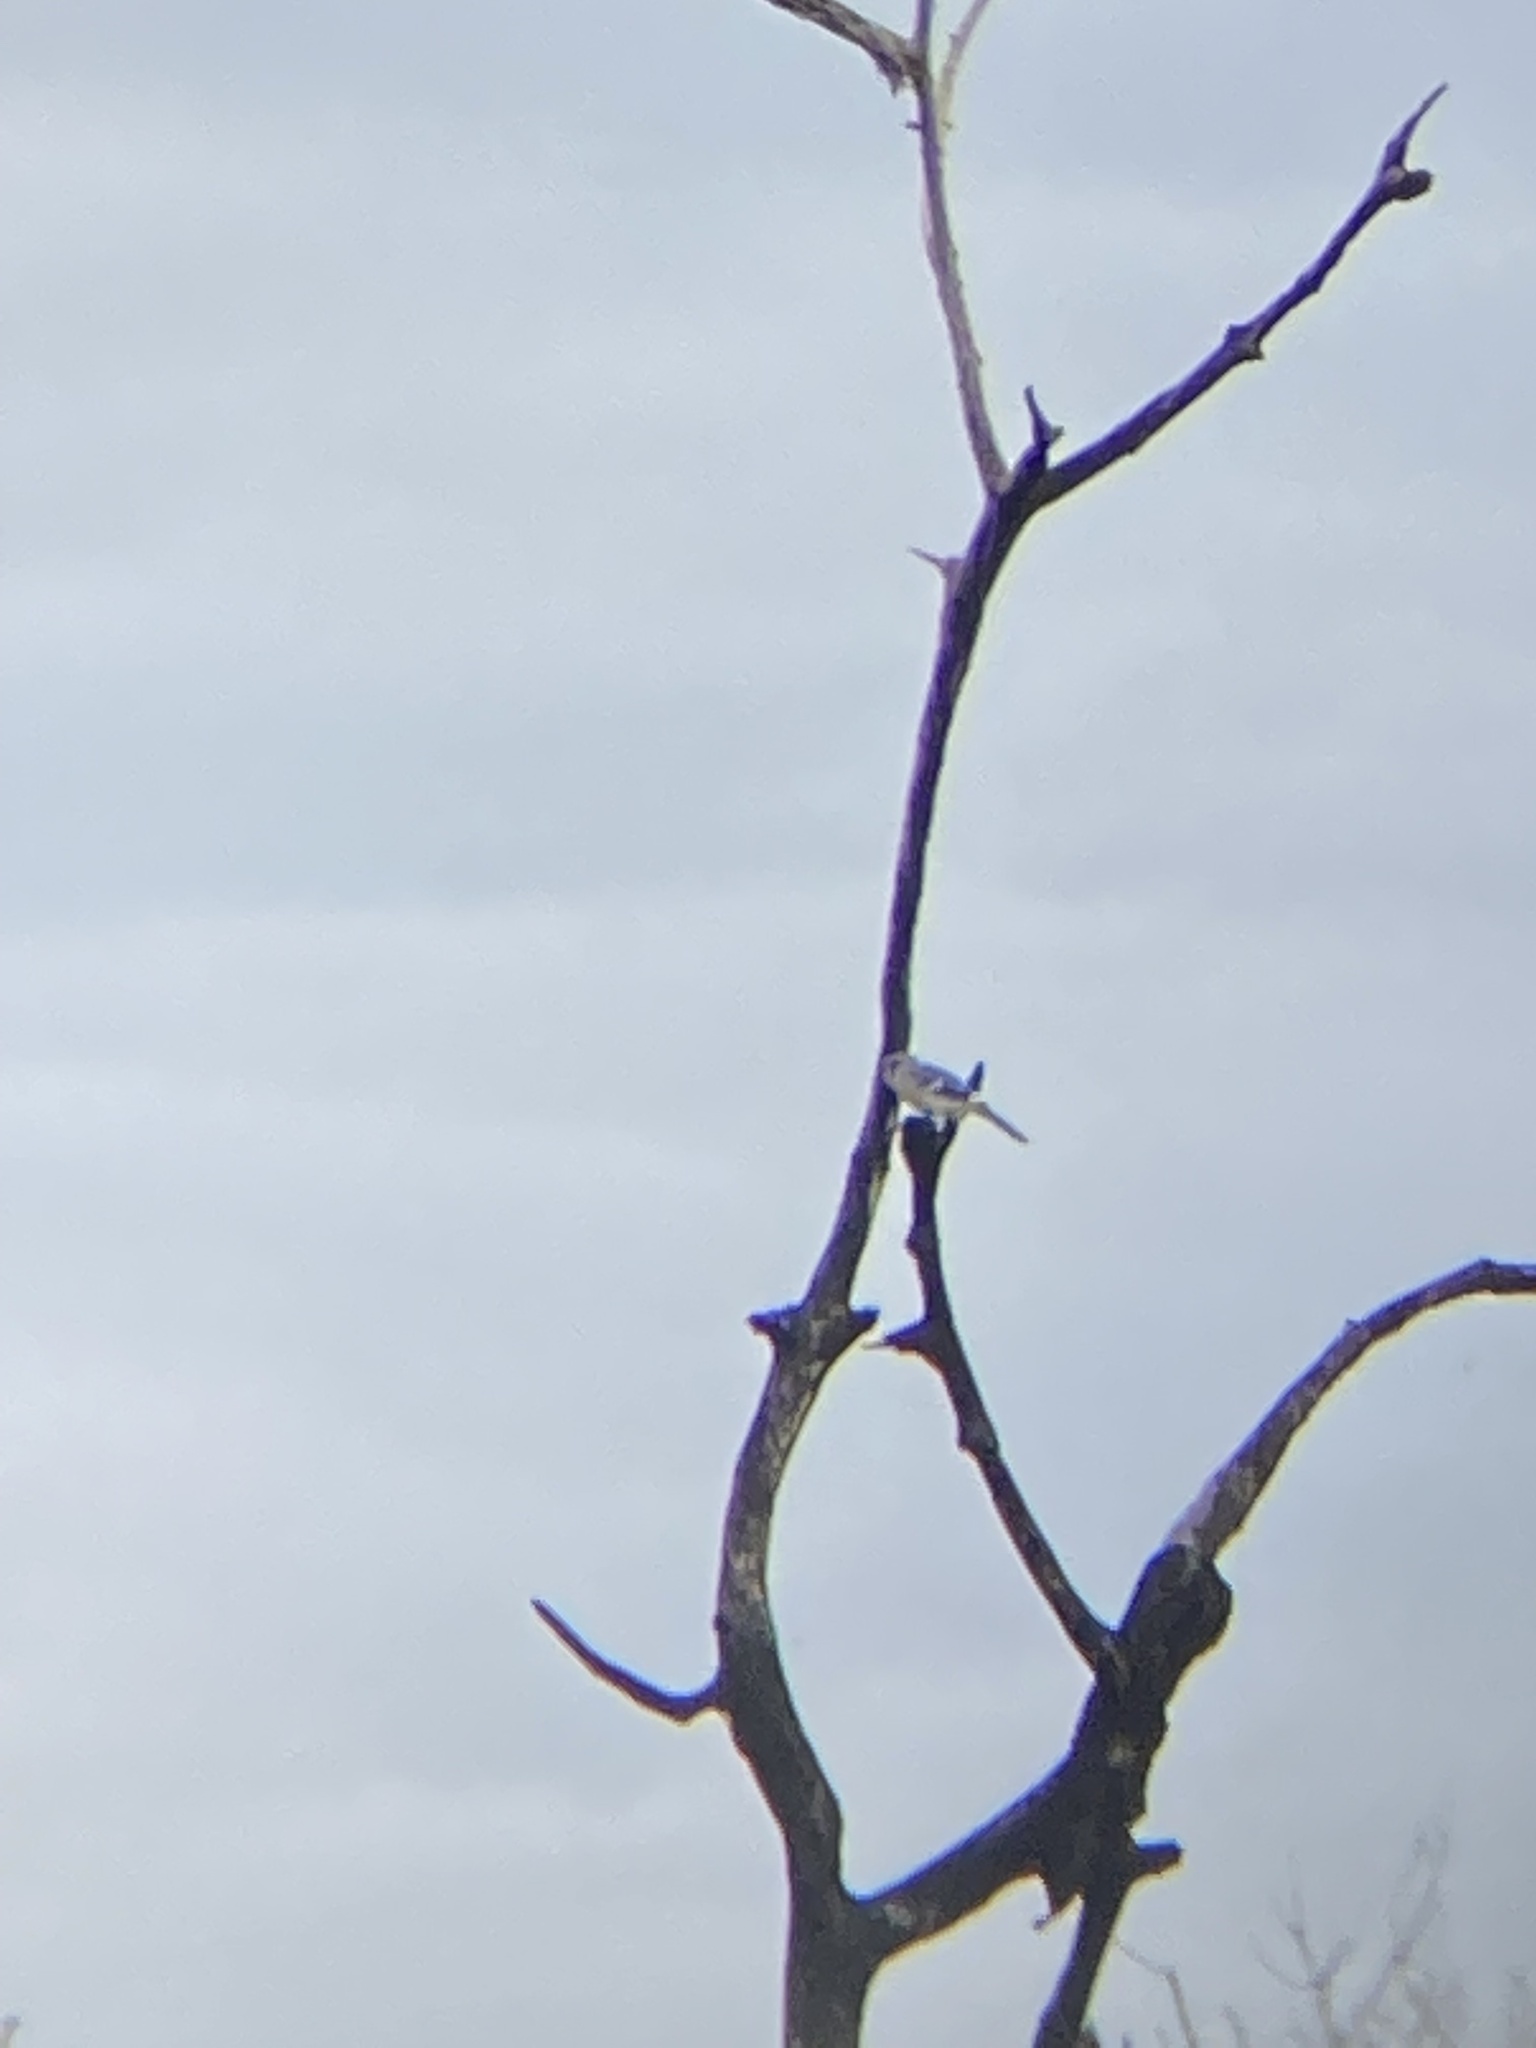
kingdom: Animalia
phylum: Chordata
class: Aves
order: Passeriformes
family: Corvidae
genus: Cyanocitta
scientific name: Cyanocitta cristata
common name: Blue jay
